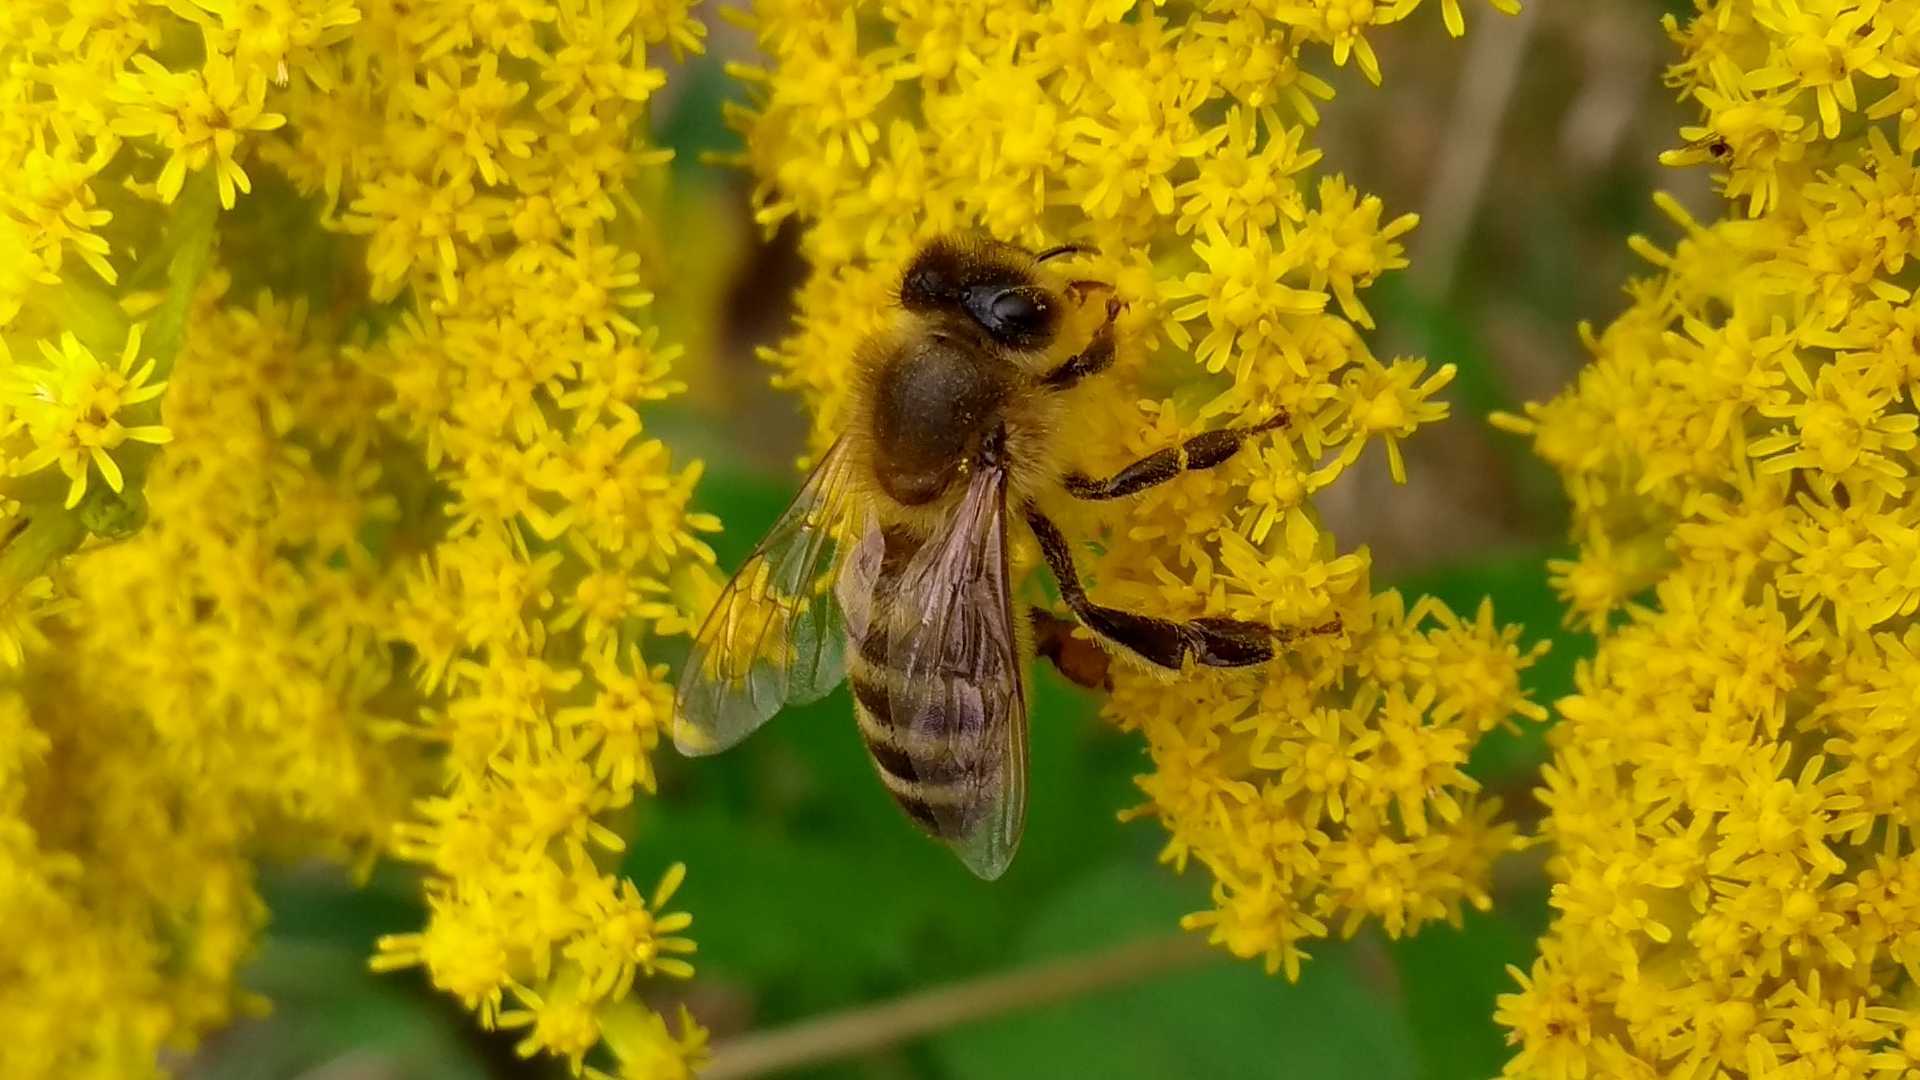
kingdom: Animalia
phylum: Arthropoda
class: Insecta
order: Hymenoptera
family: Apidae
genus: Apis
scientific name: Apis mellifera
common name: Honey bee
